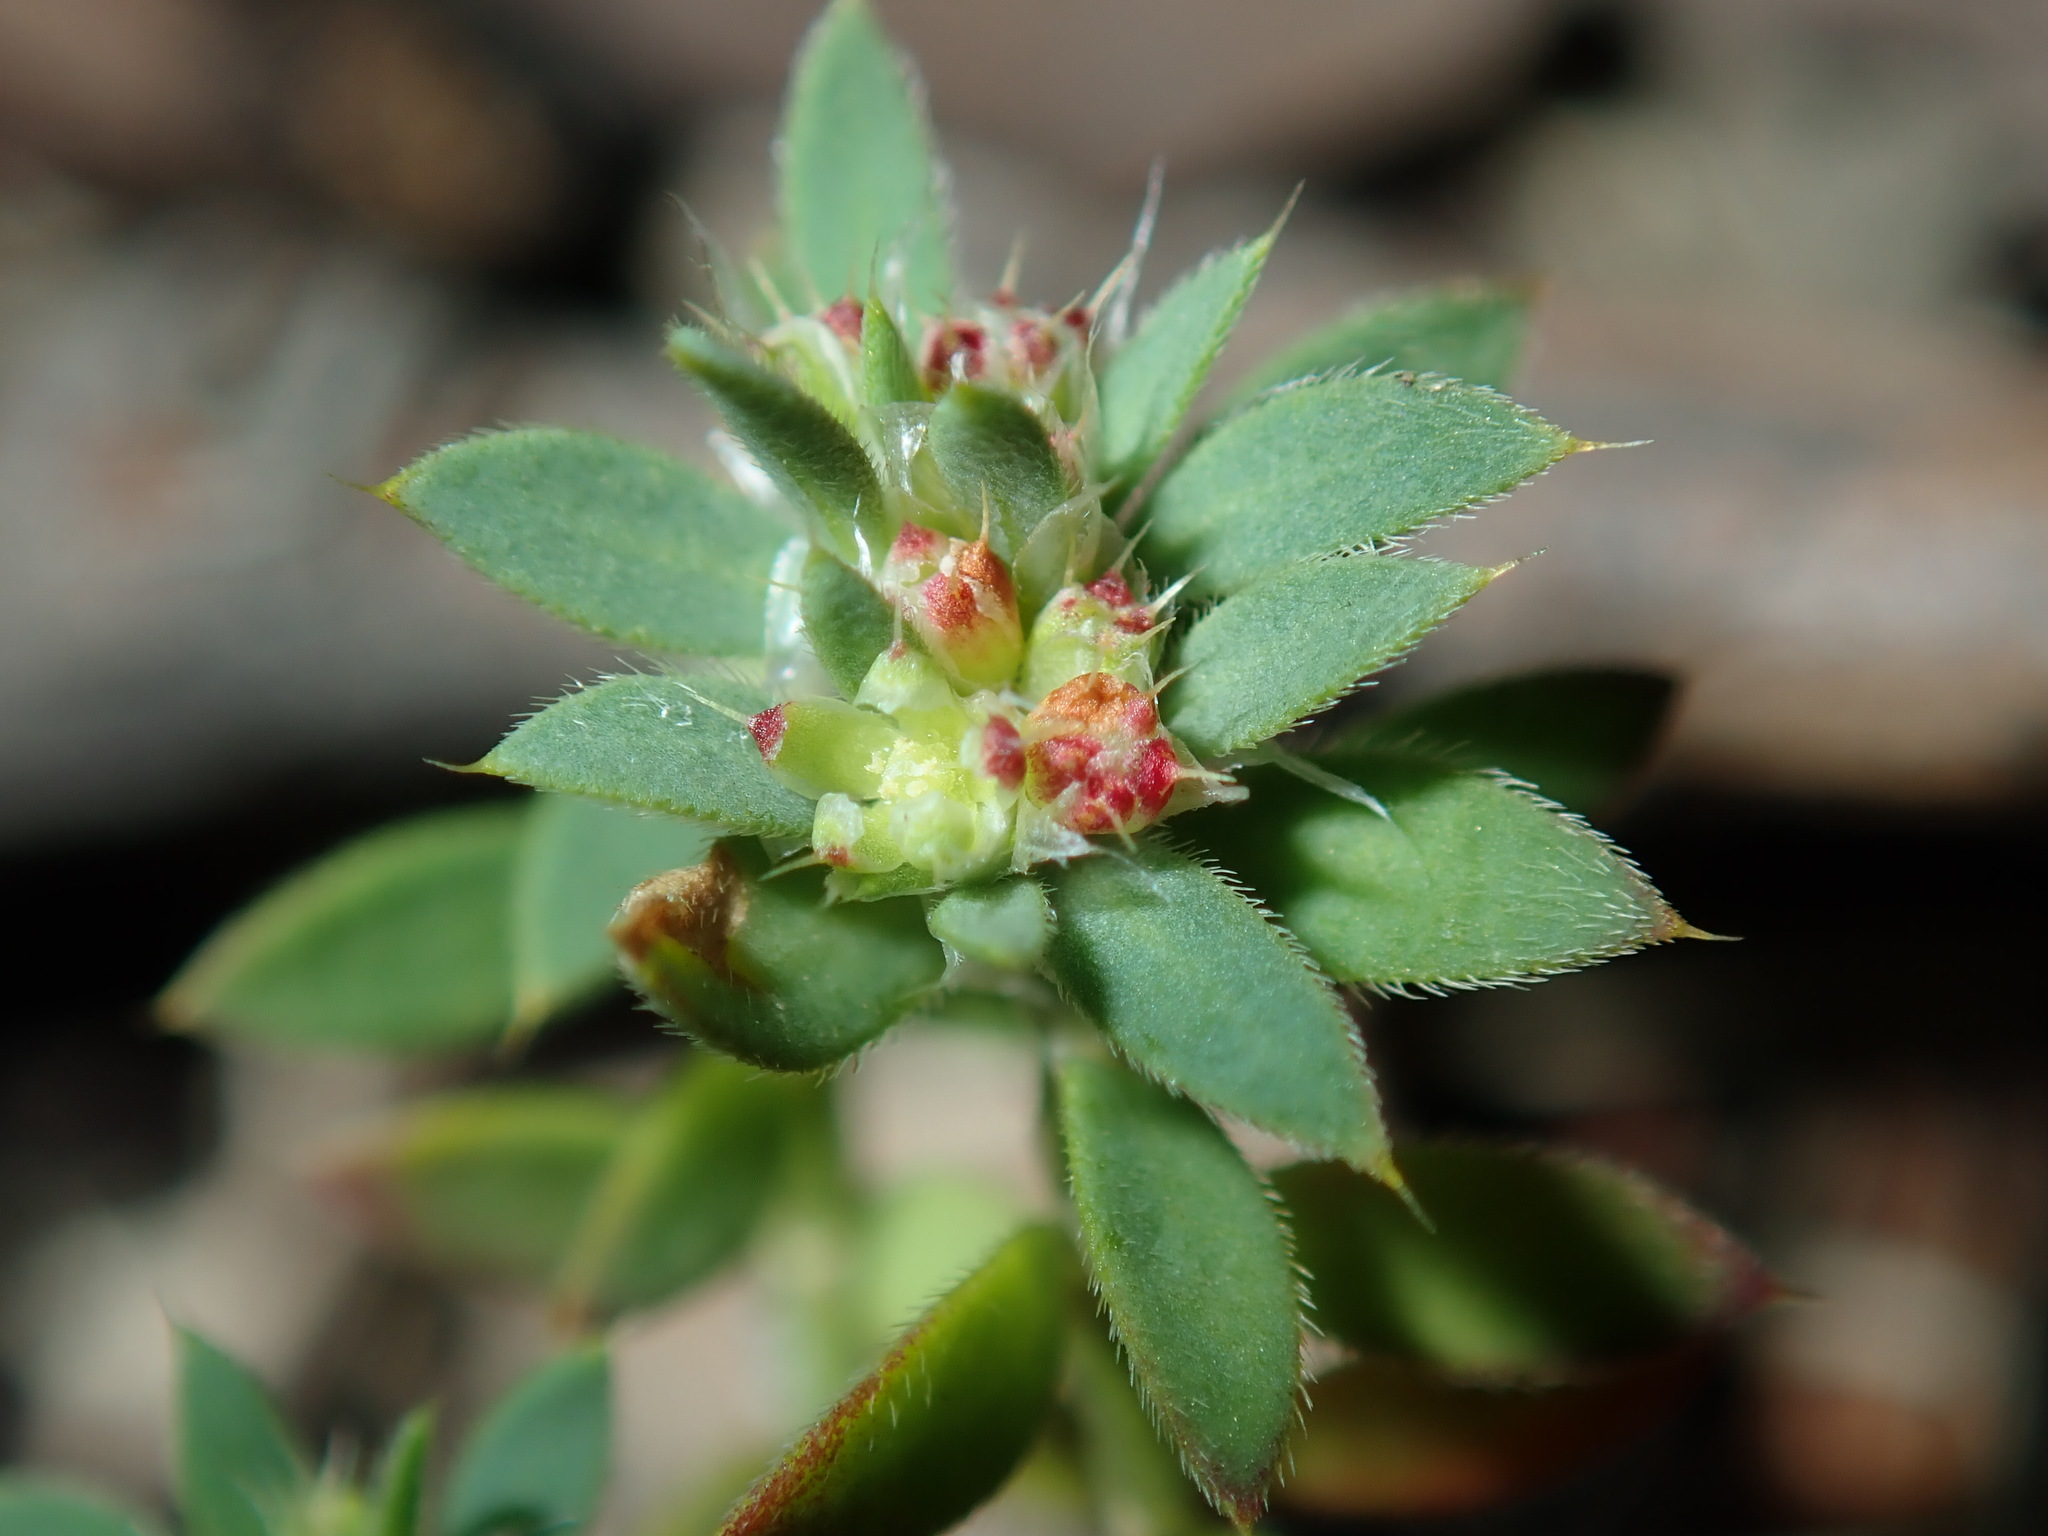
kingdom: Plantae
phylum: Tracheophyta
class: Magnoliopsida
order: Caryophyllales
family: Caryophyllaceae
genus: Paronychia
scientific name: Paronychia brasiliana
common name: Brazilian whitlow
